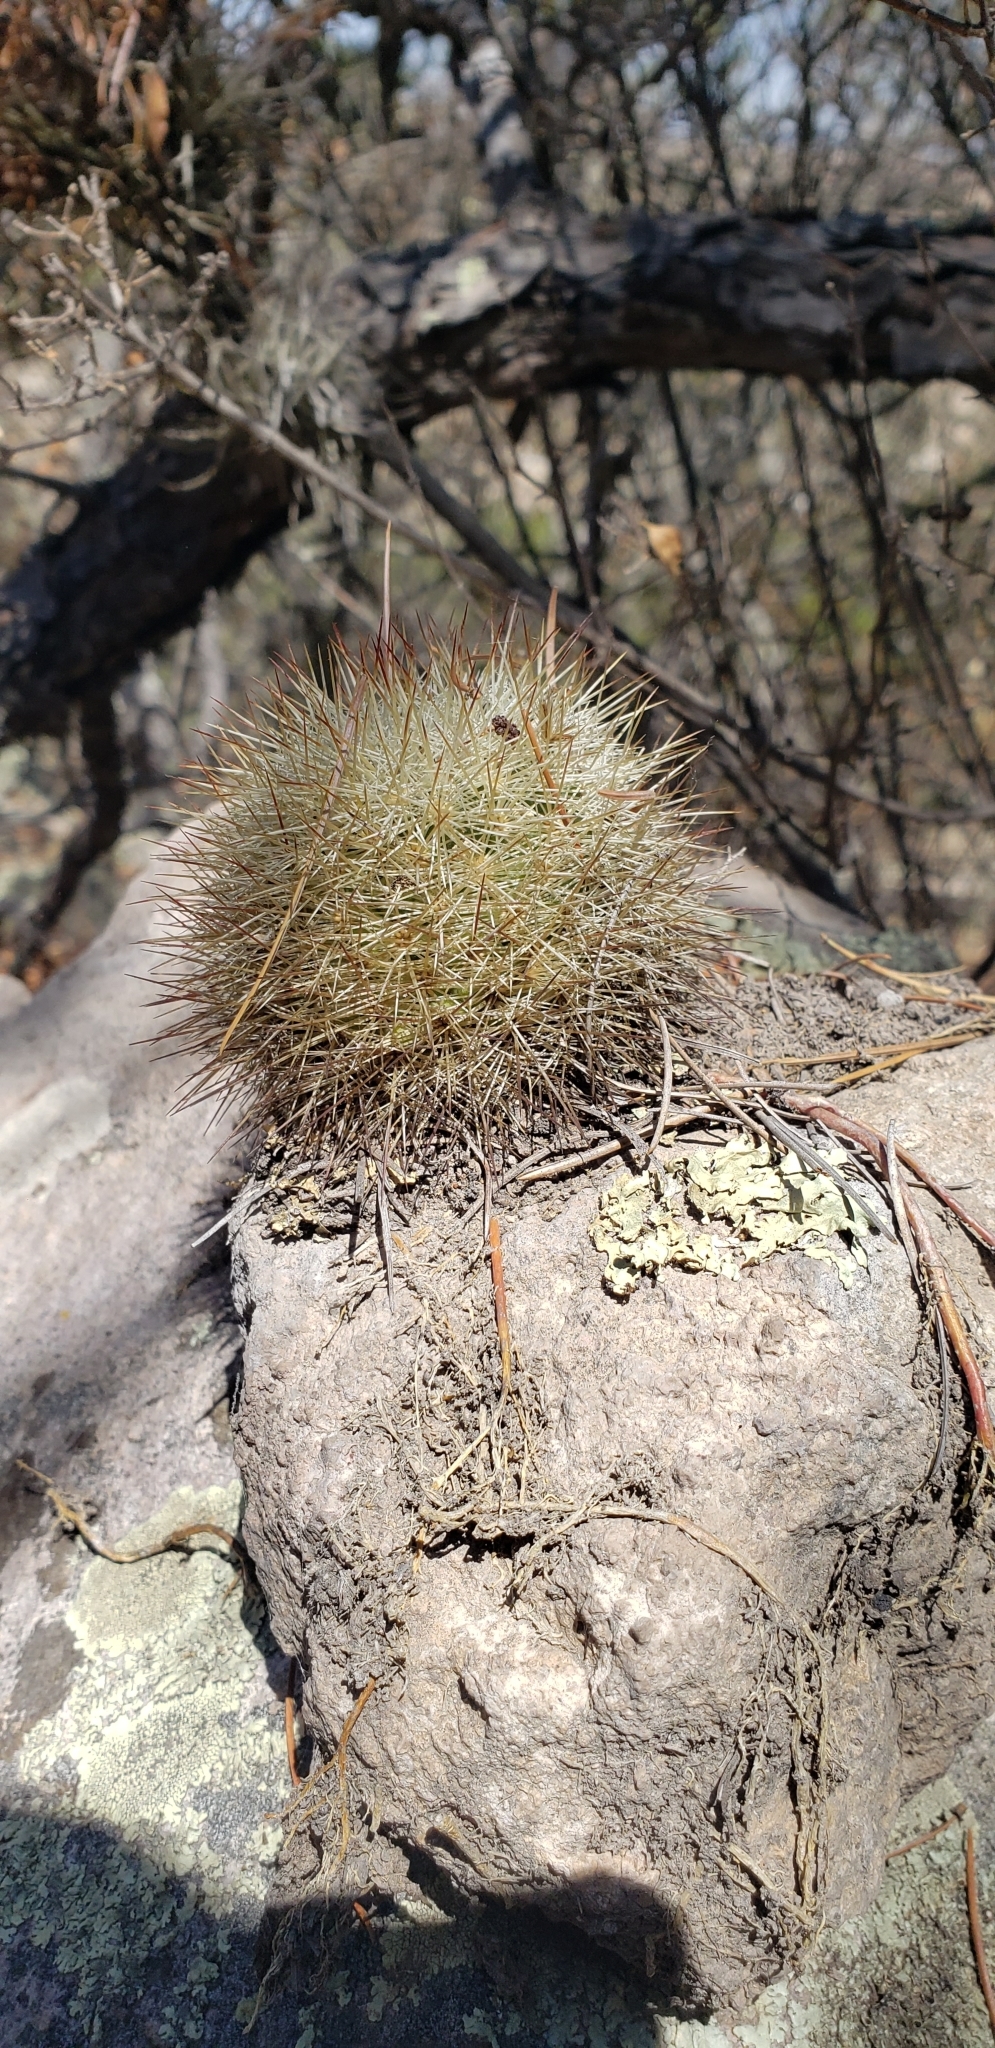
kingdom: Plantae
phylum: Tracheophyta
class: Magnoliopsida
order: Caryophyllales
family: Cactaceae
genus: Mammillaria
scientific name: Mammillaria densispina
